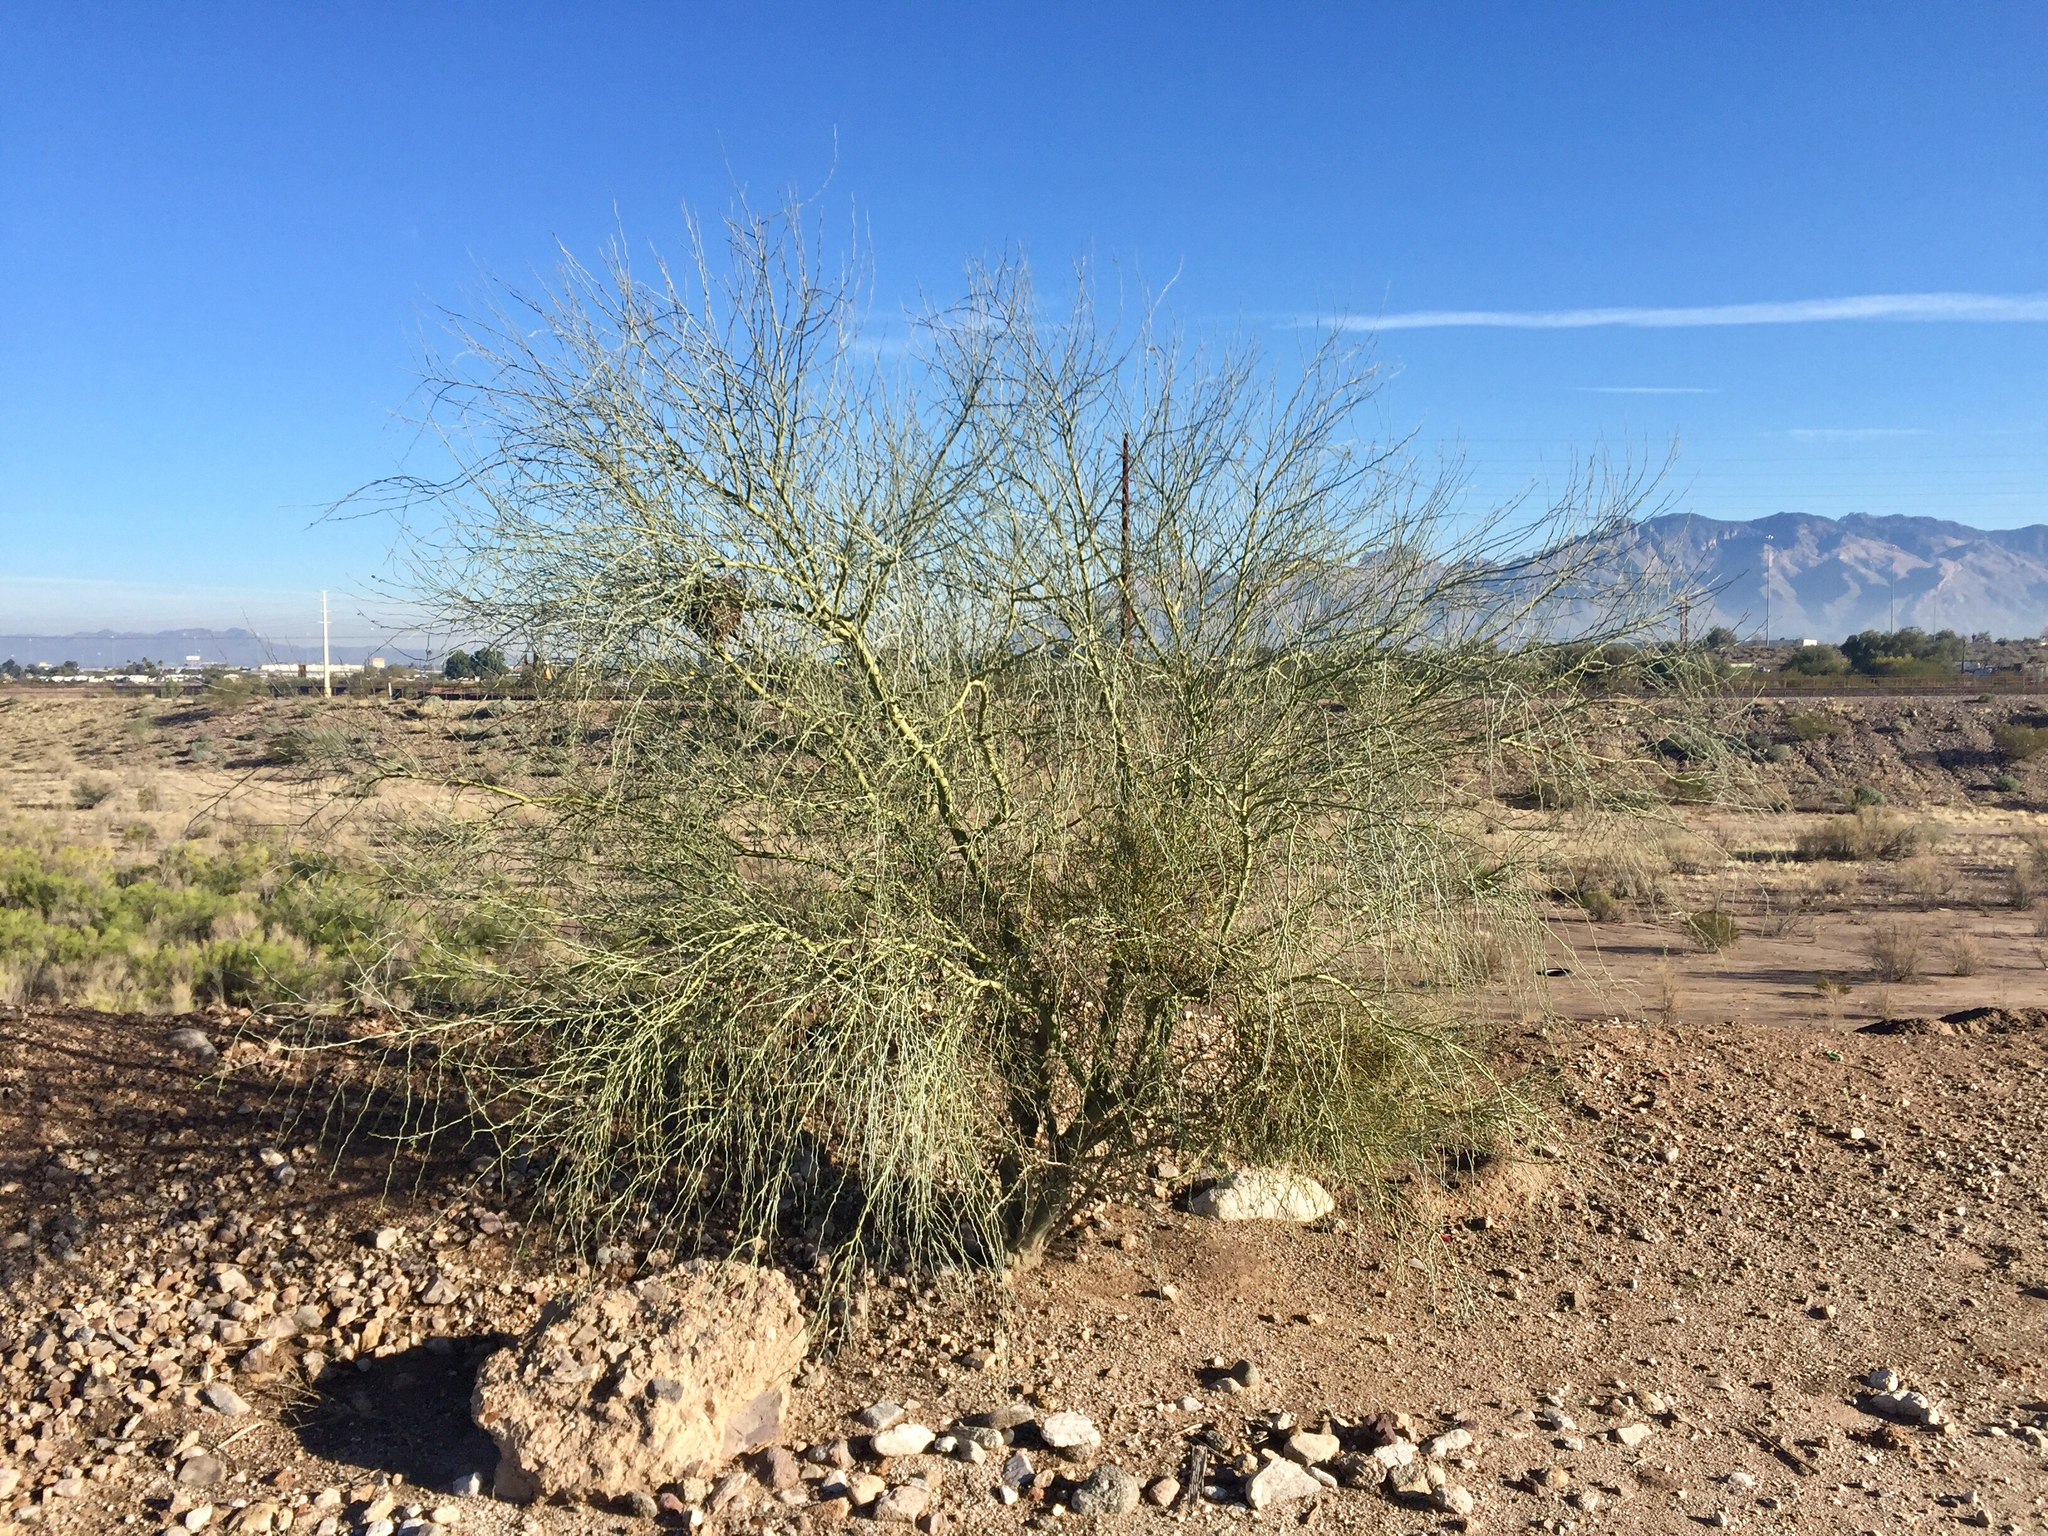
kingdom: Plantae
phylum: Tracheophyta
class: Magnoliopsida
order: Fabales
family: Fabaceae
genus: Parkinsonia
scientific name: Parkinsonia florida
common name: Blue paloverde
